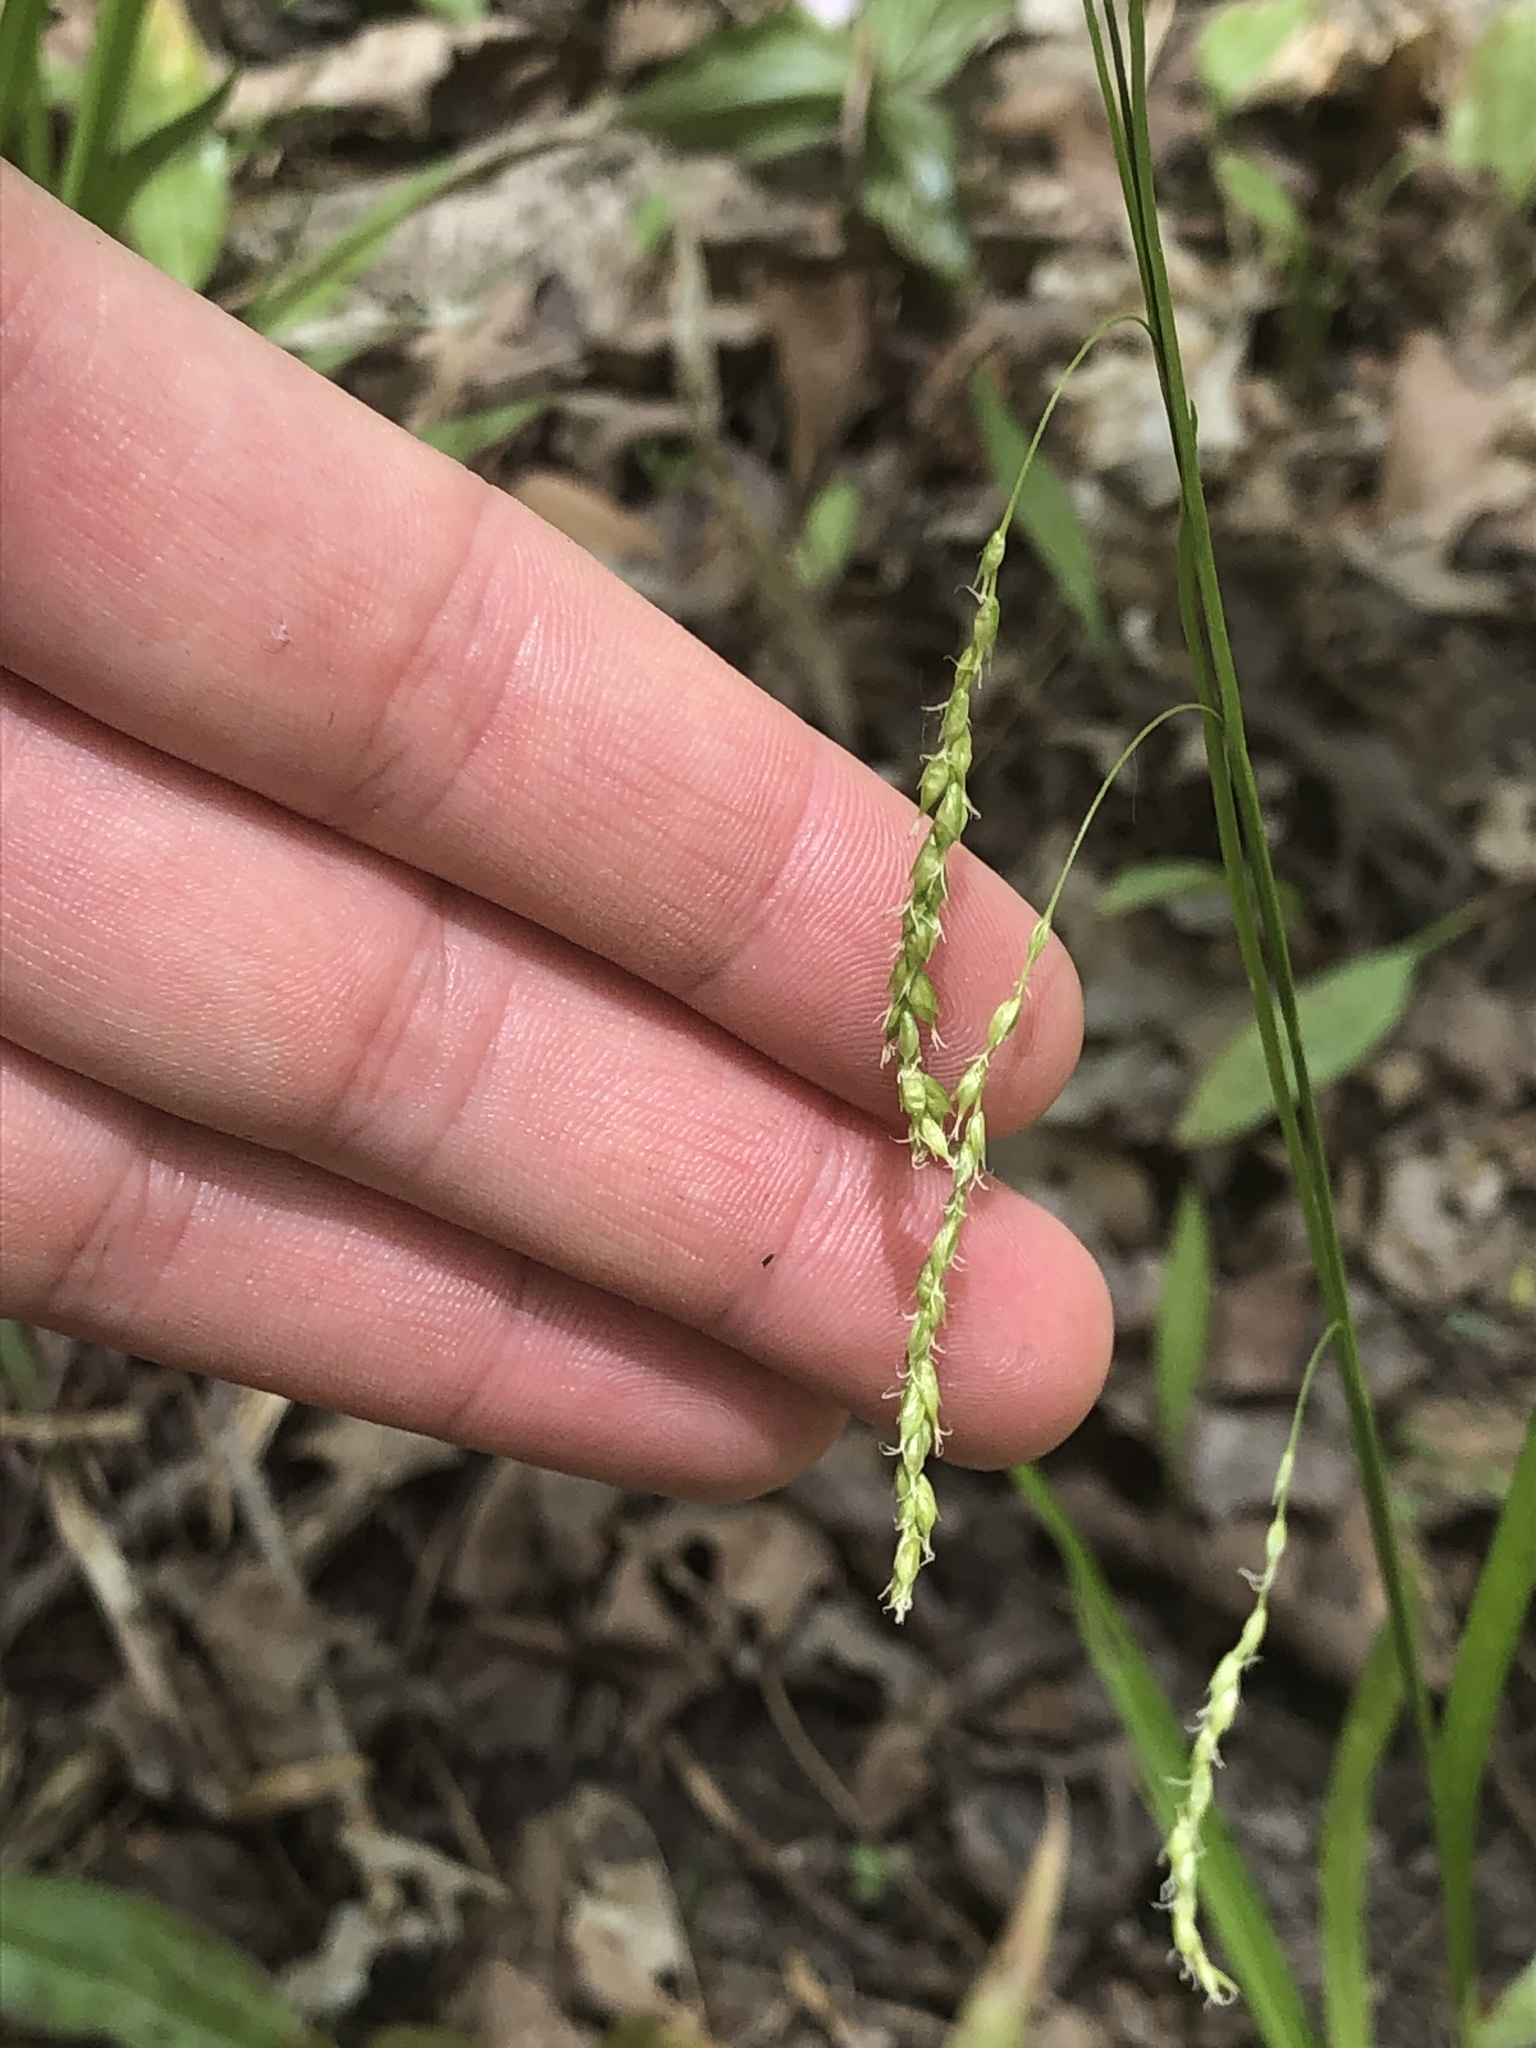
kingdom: Plantae
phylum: Tracheophyta
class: Liliopsida
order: Poales
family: Cyperaceae
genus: Carex
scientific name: Carex arctata
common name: Black sedge
